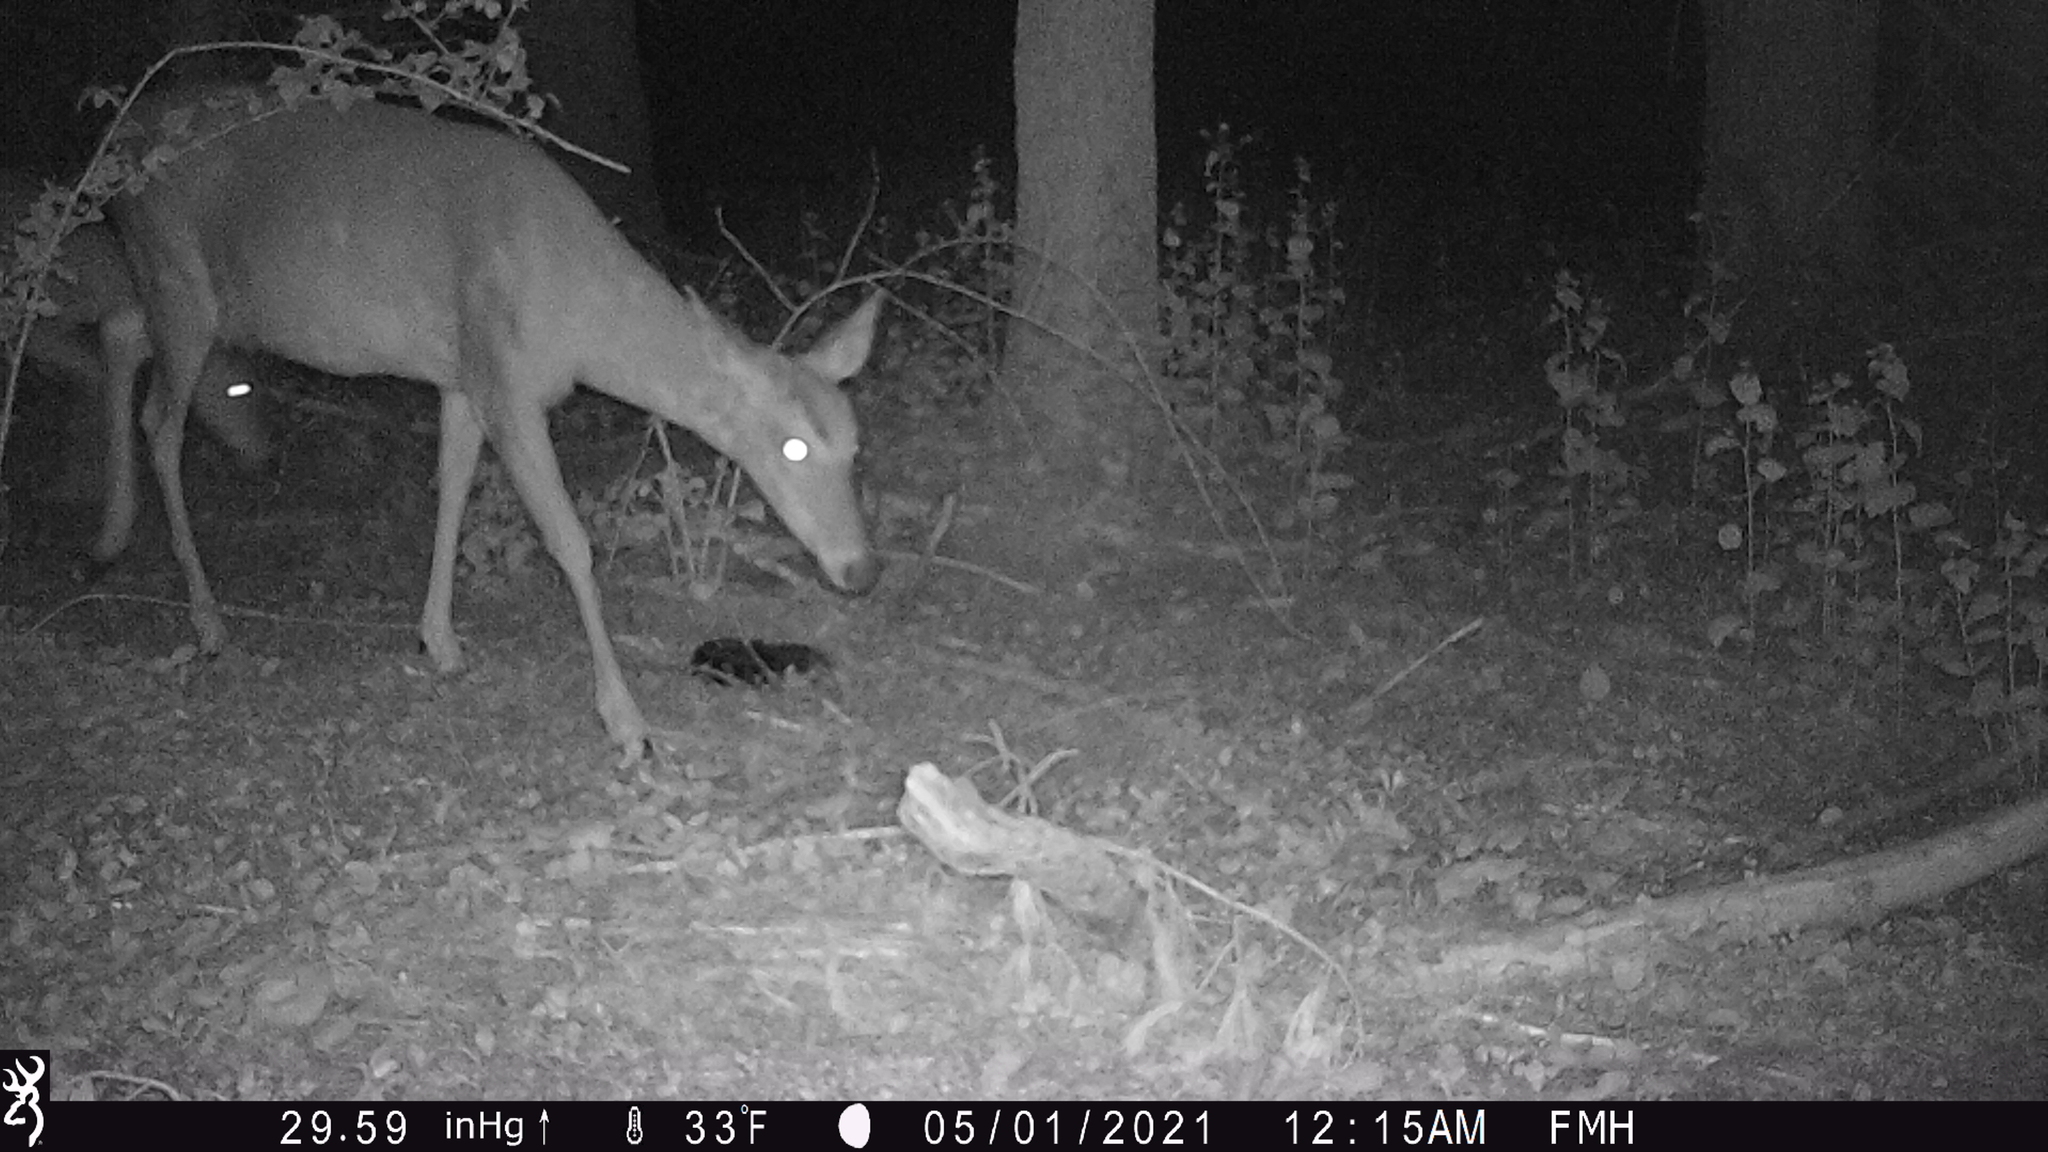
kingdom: Animalia
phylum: Chordata
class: Mammalia
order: Artiodactyla
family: Cervidae
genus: Odocoileus
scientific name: Odocoileus virginianus
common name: White-tailed deer
